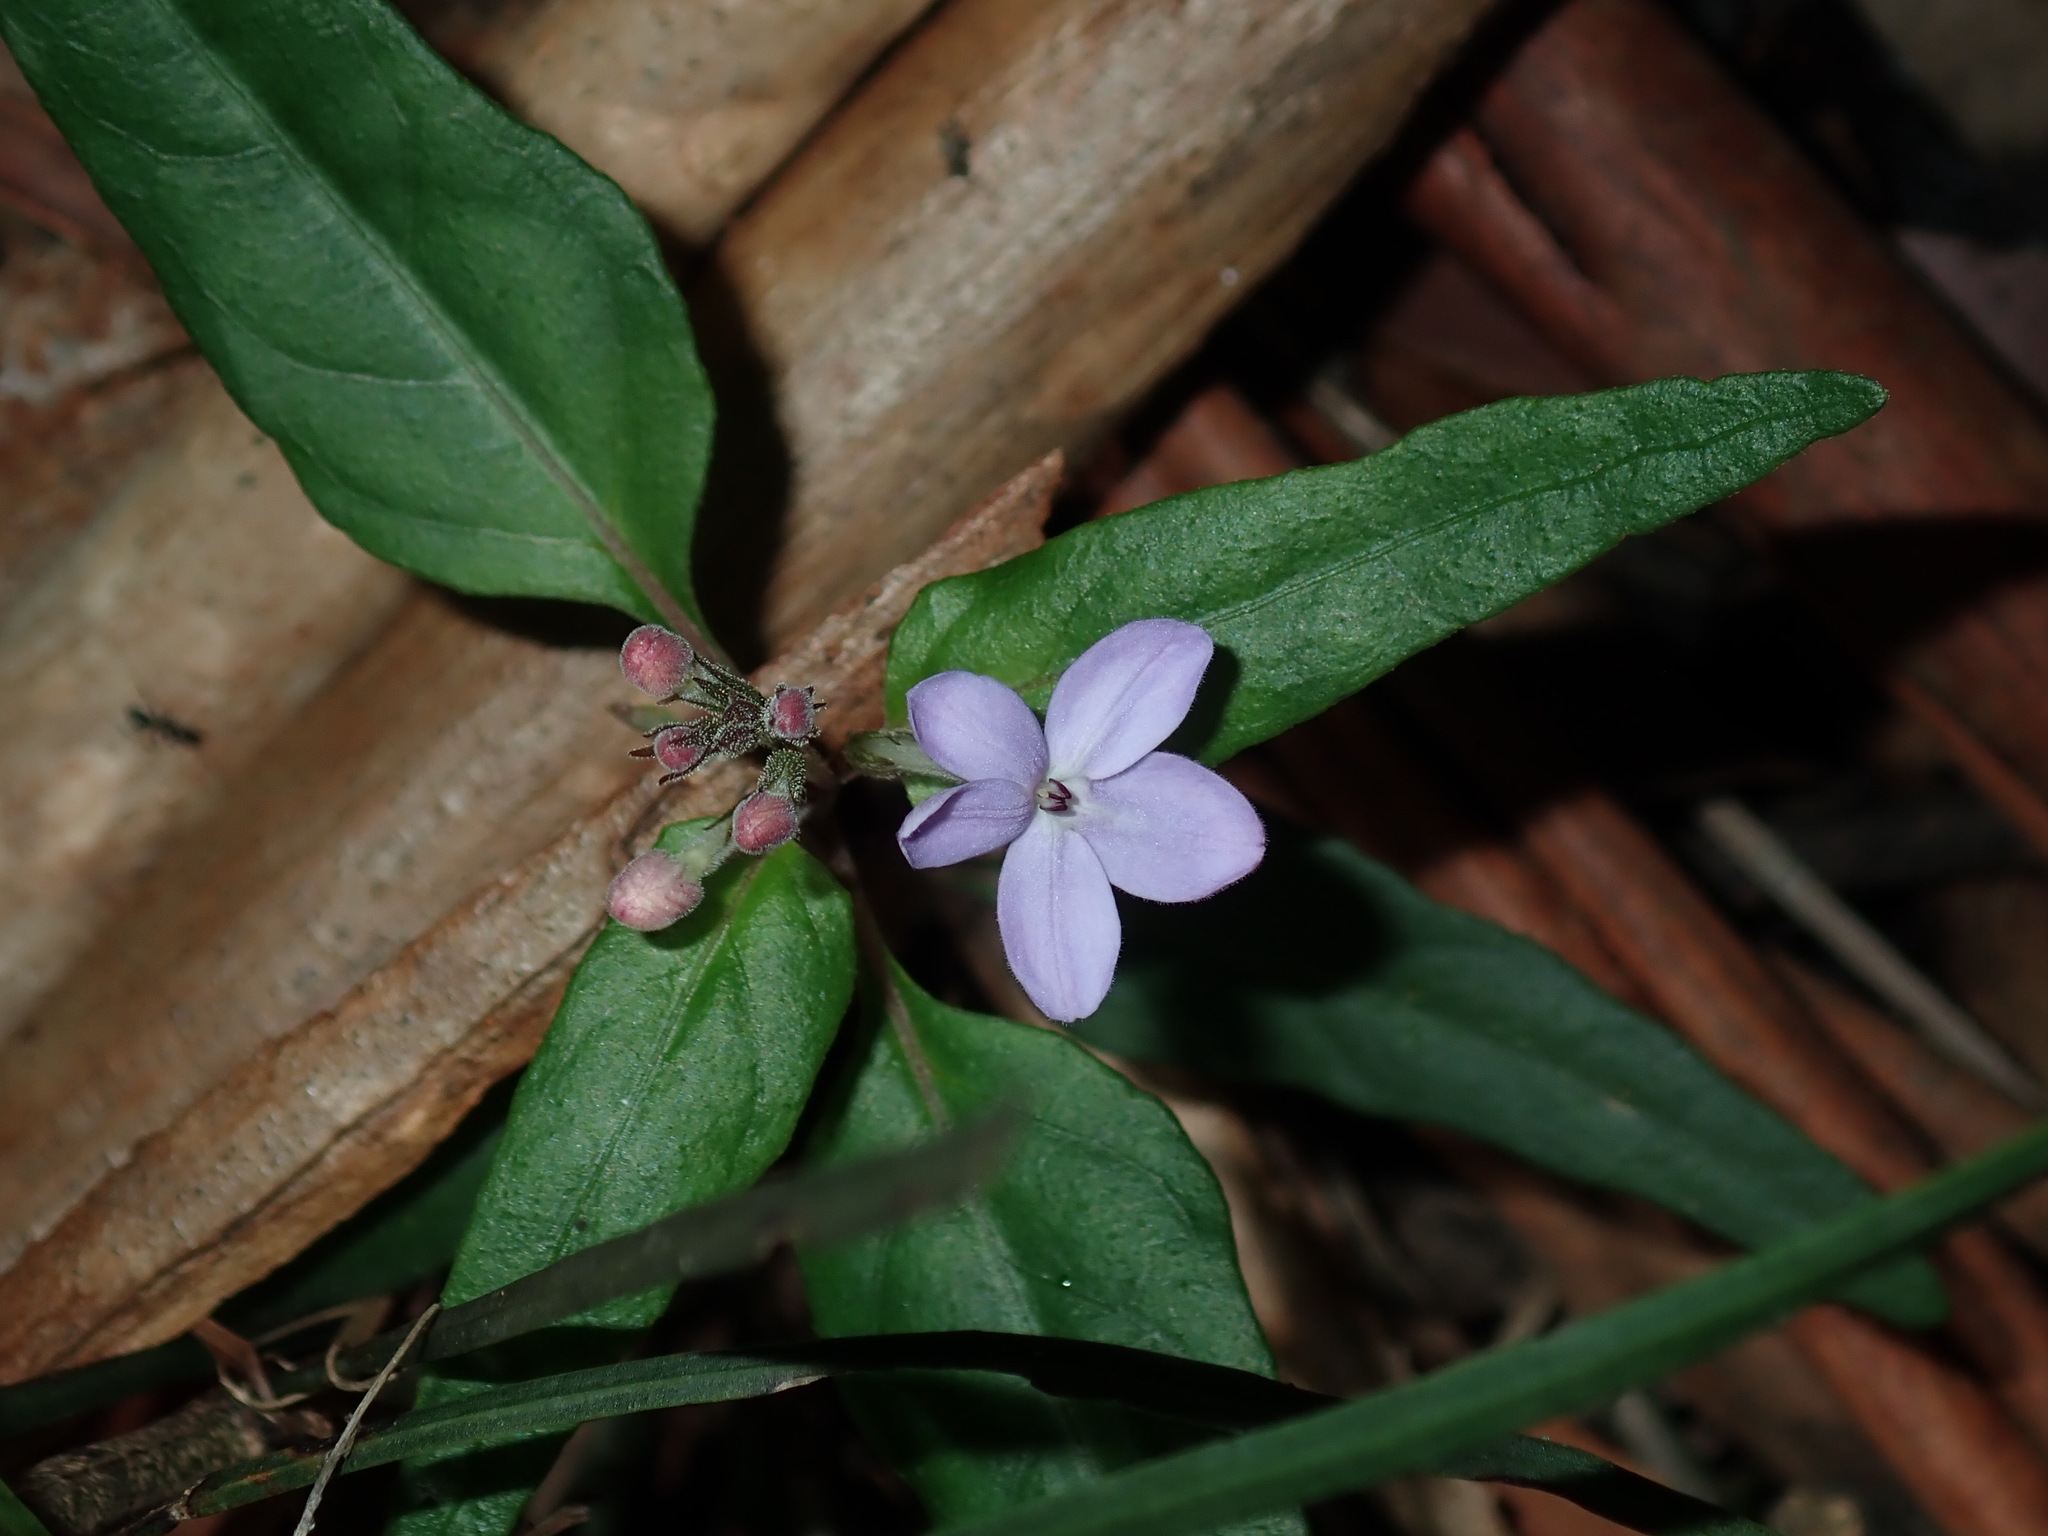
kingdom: Plantae
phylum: Tracheophyta
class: Magnoliopsida
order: Lamiales
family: Acanthaceae
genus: Pseuderanthemum
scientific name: Pseuderanthemum variabile
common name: Night and afternoon
